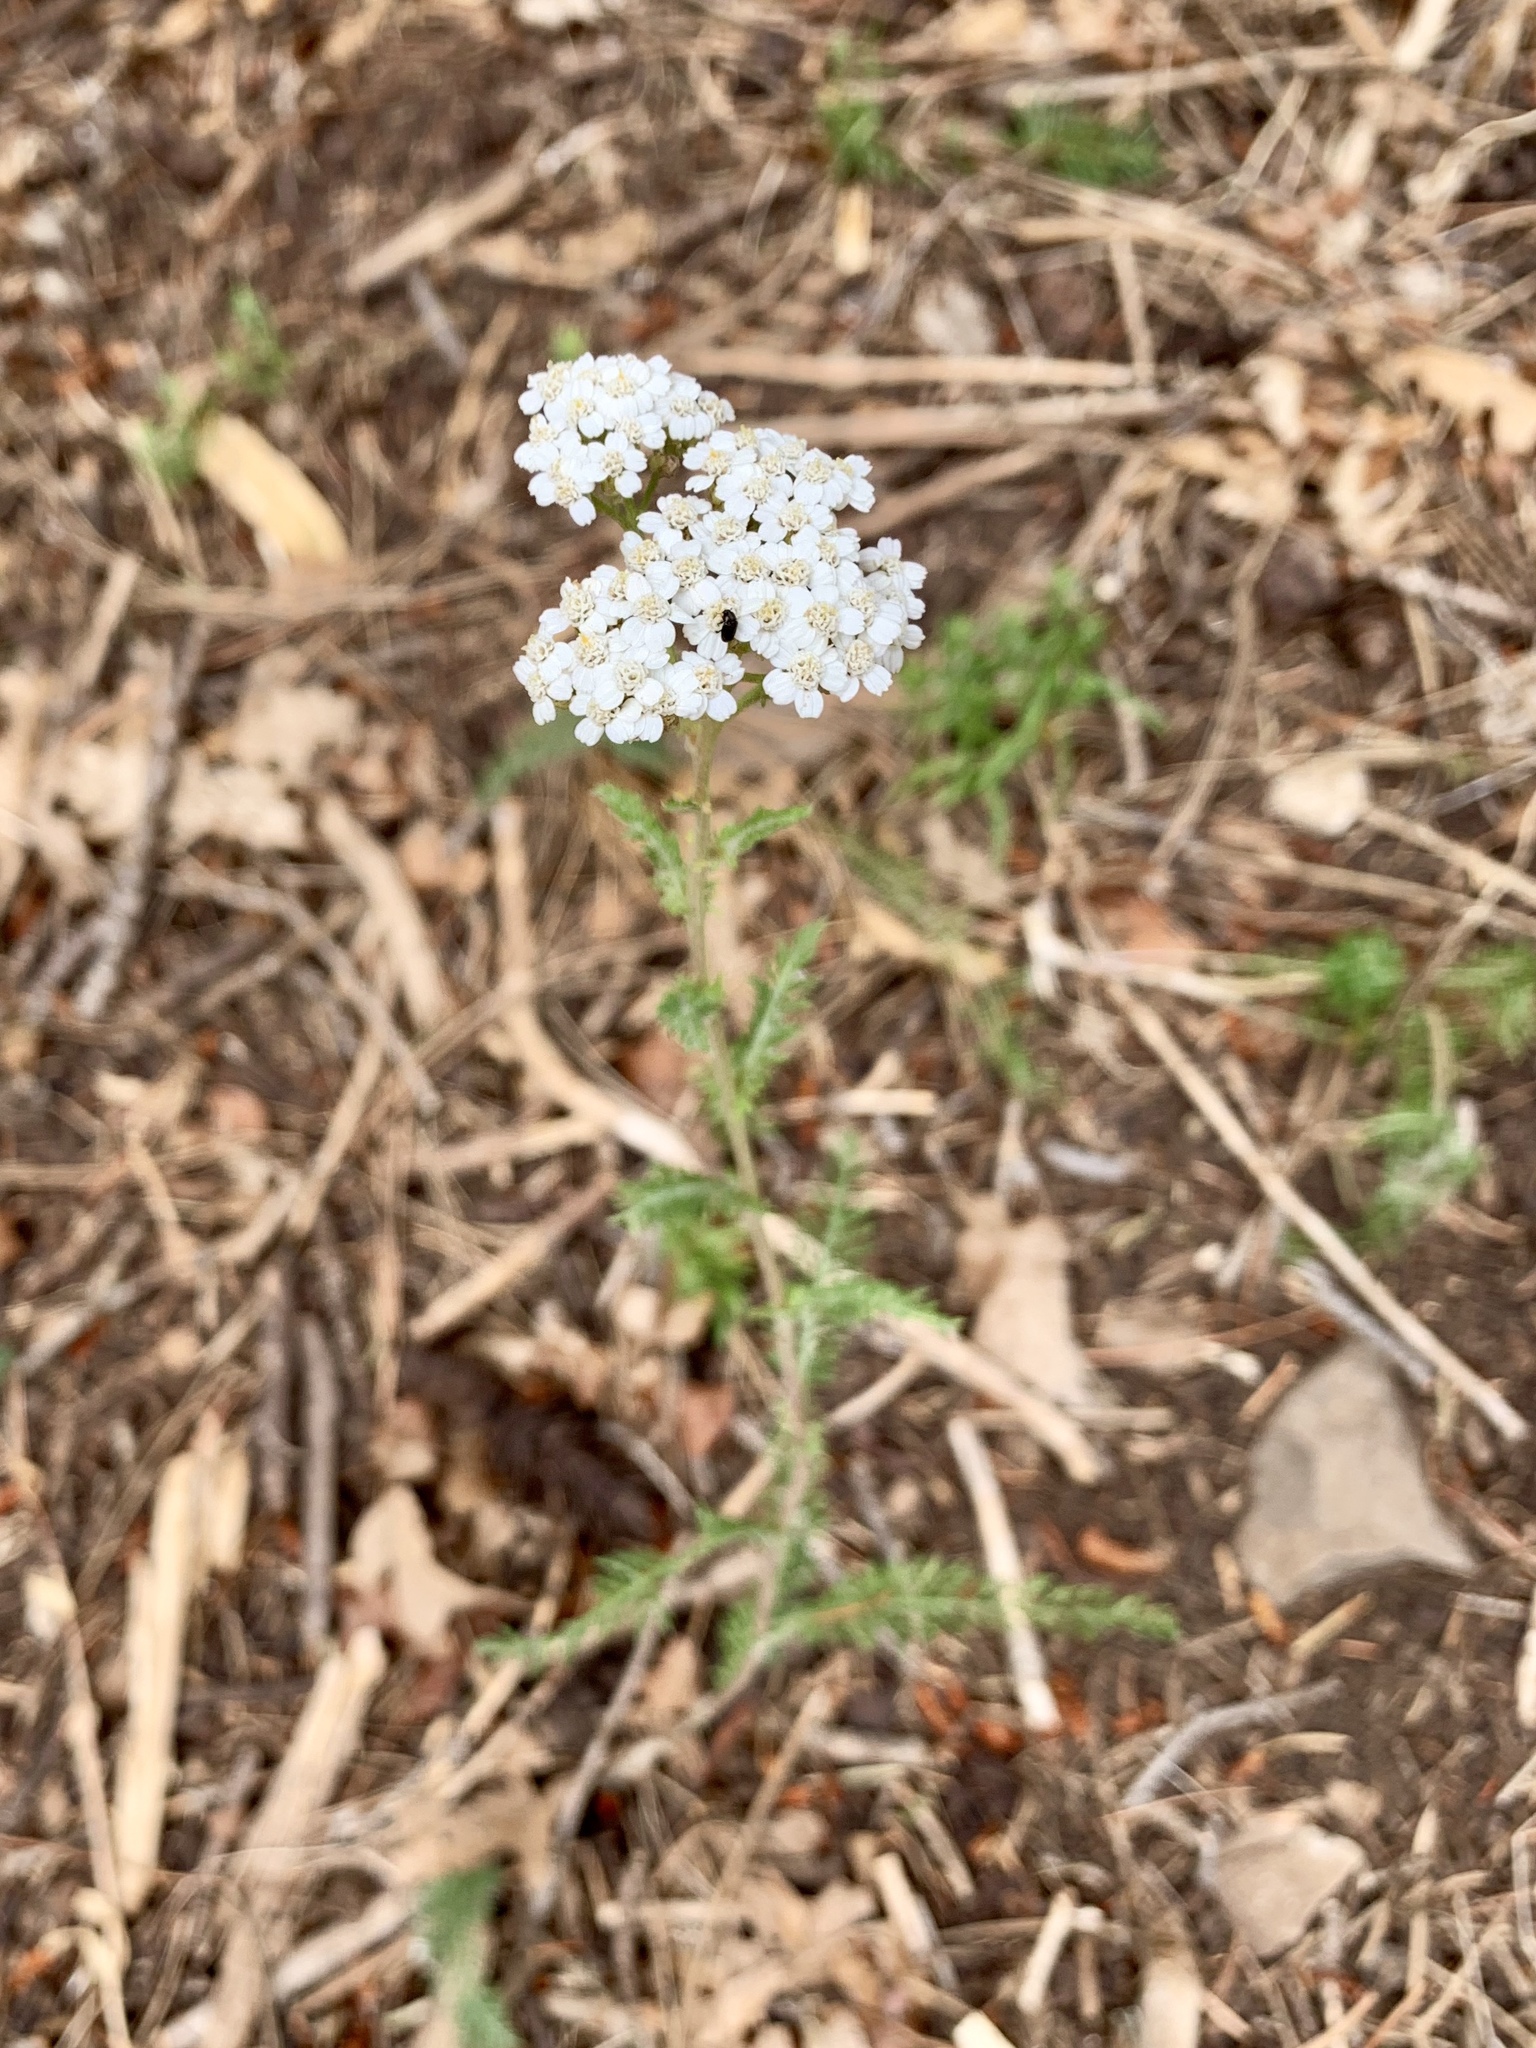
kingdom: Plantae
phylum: Tracheophyta
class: Magnoliopsida
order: Asterales
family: Asteraceae
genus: Achillea
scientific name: Achillea millefolium
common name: Yarrow
